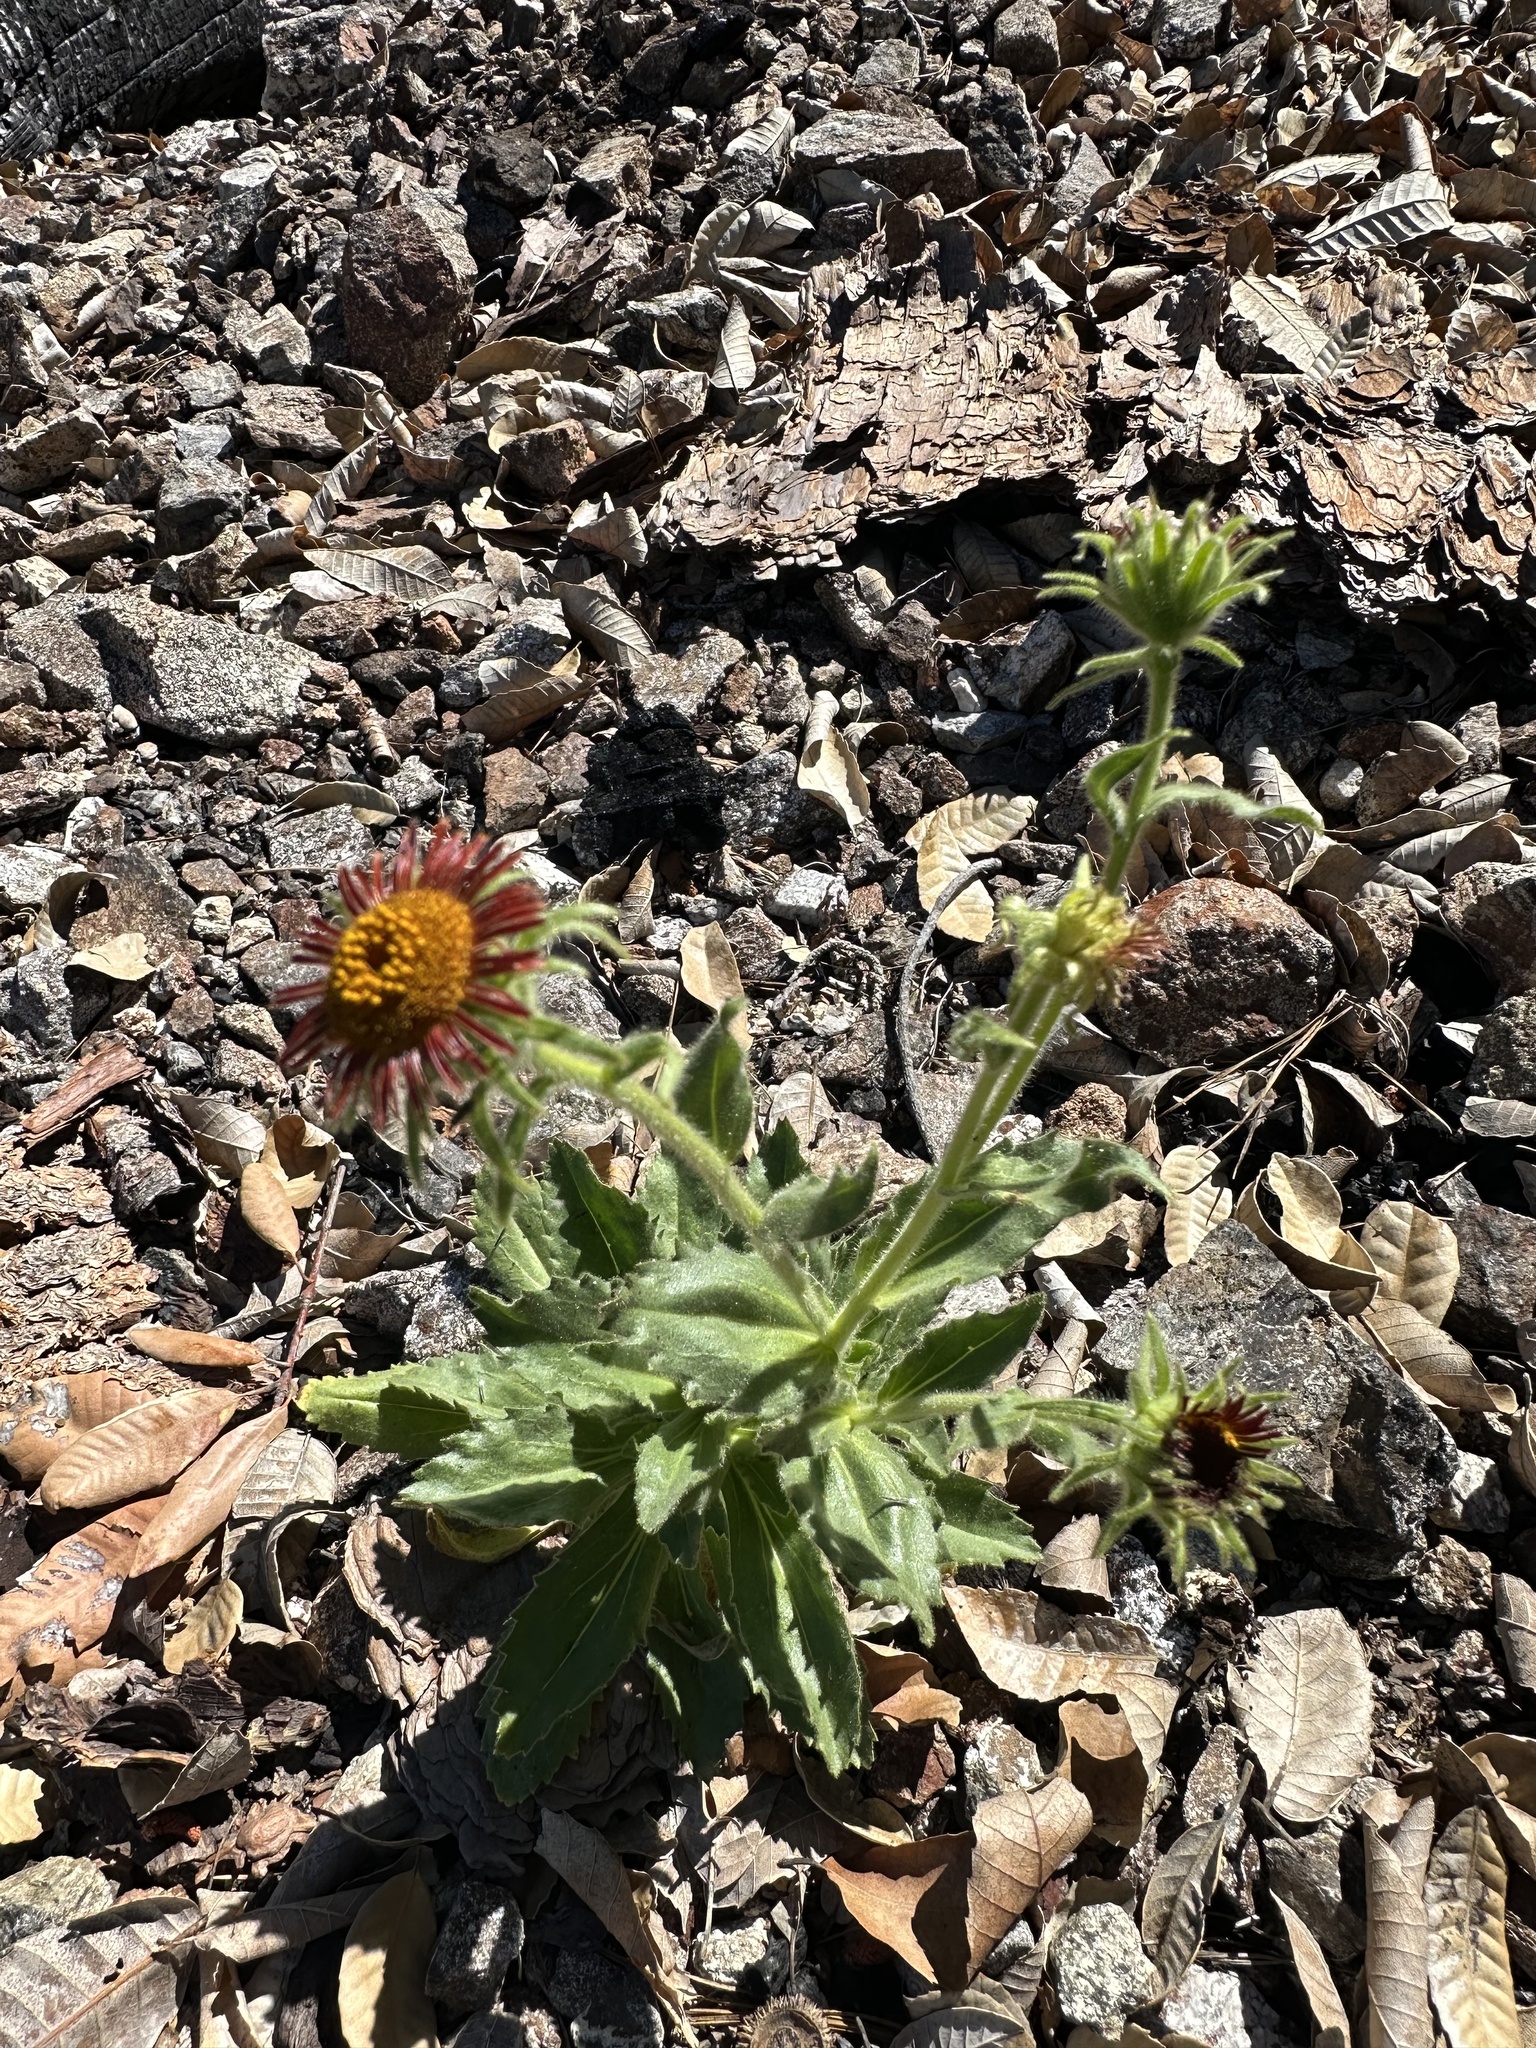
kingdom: Plantae
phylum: Tracheophyta
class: Magnoliopsida
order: Asterales
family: Asteraceae
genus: Hulsea
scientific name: Hulsea heterochroma
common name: Redray alpinegold
